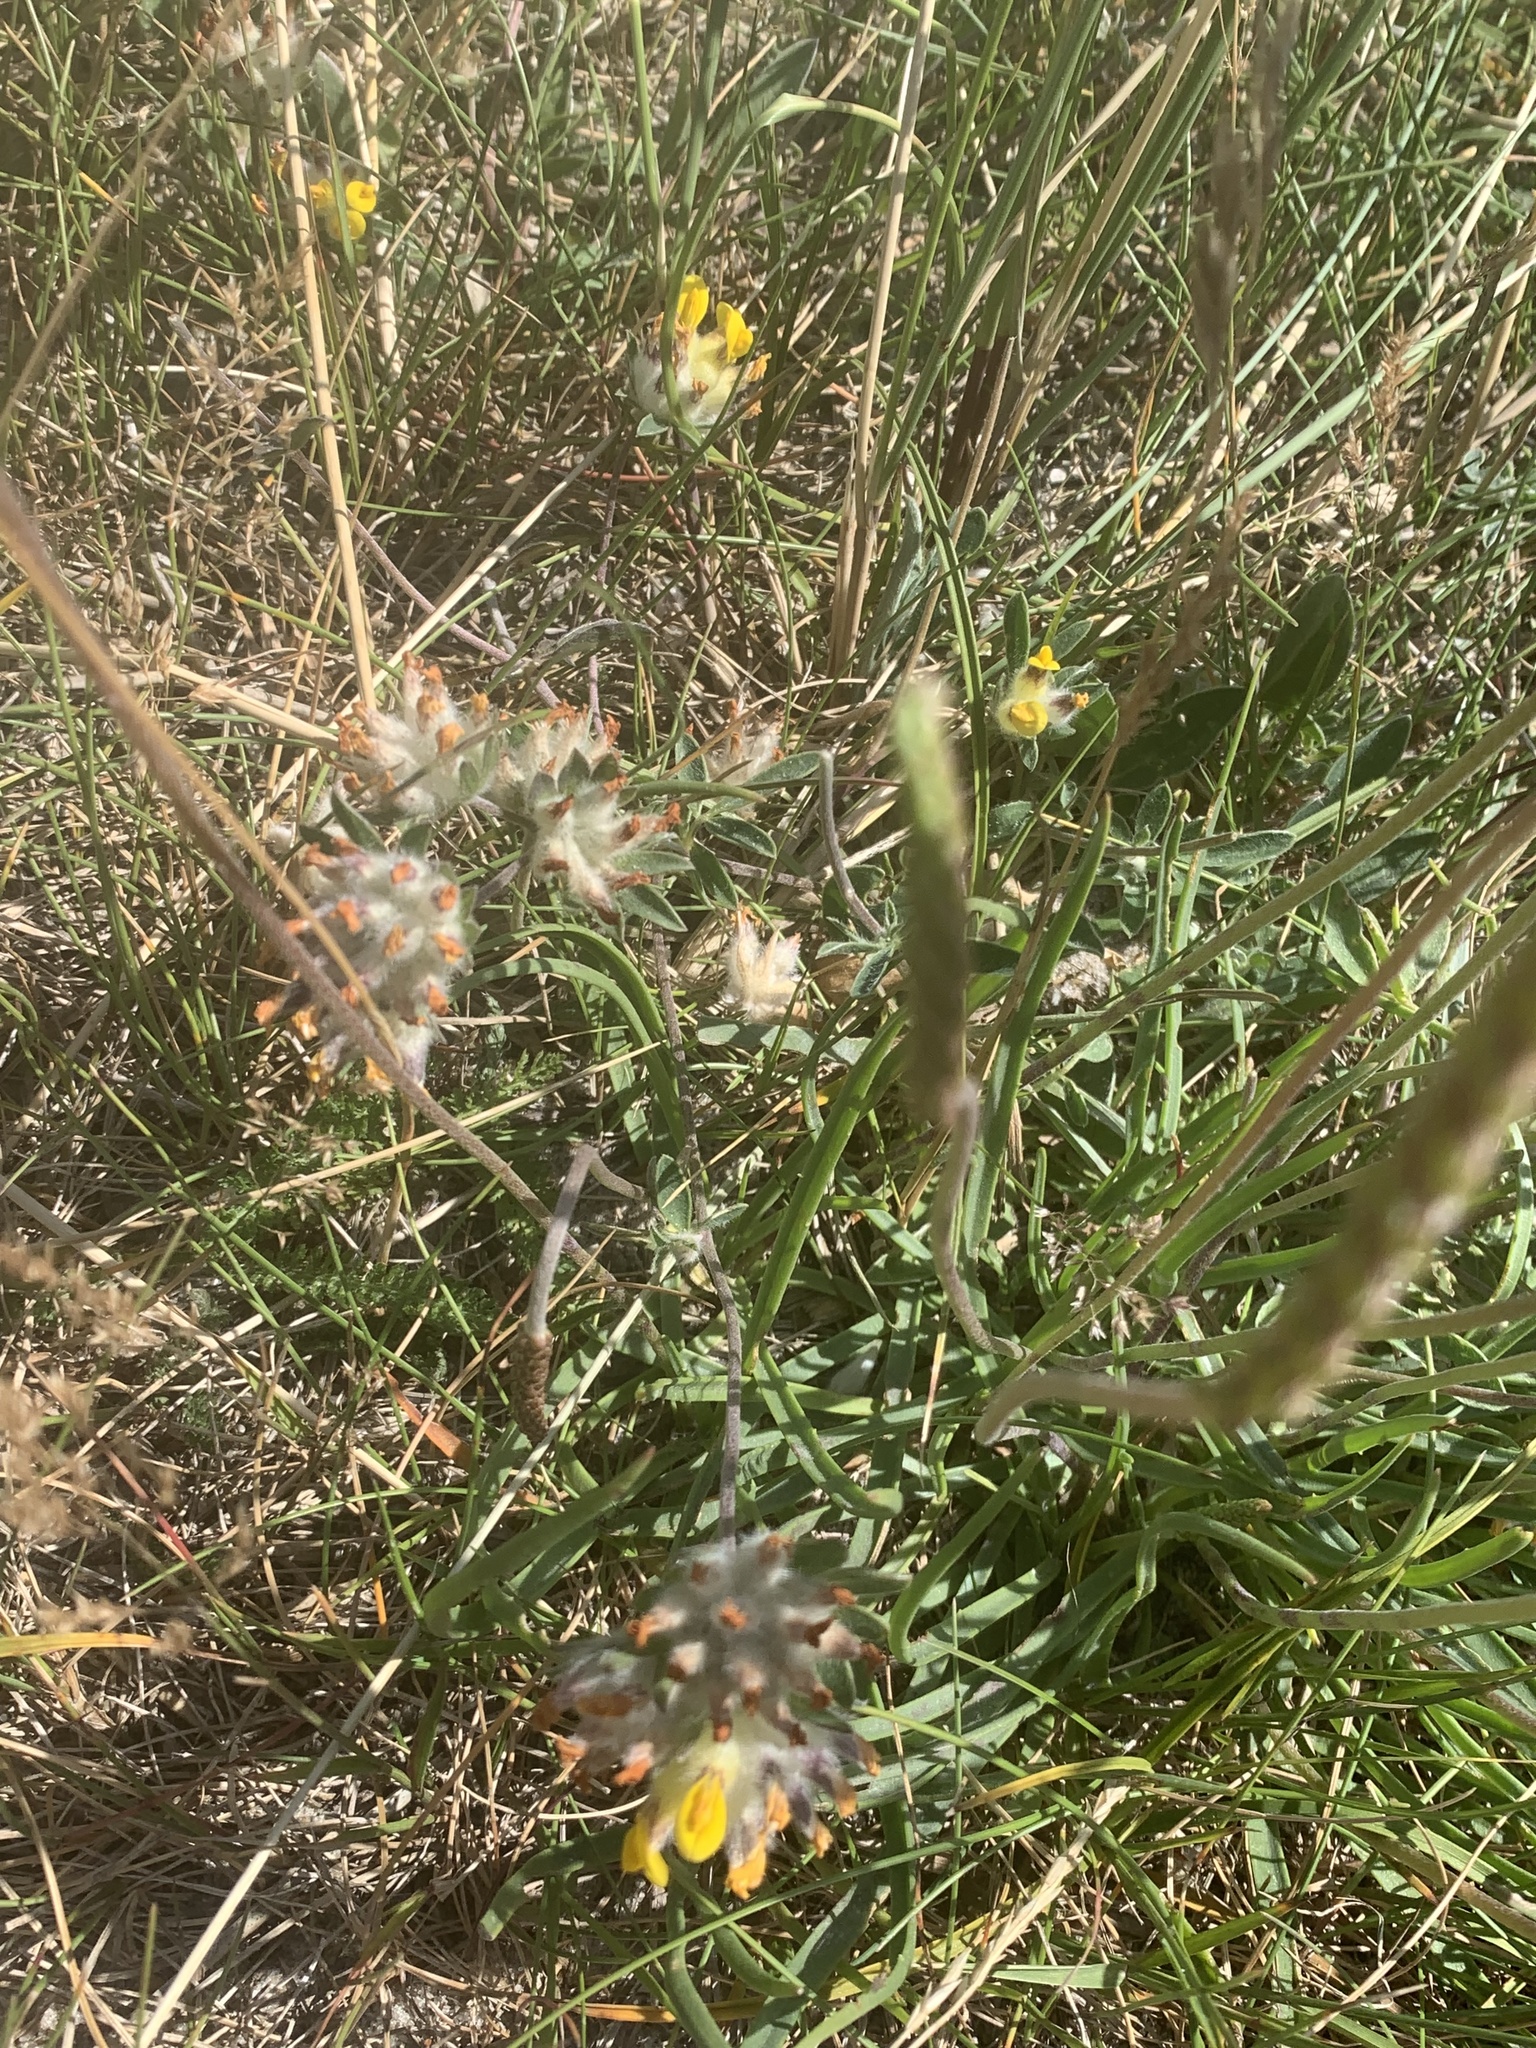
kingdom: Plantae
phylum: Tracheophyta
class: Magnoliopsida
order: Fabales
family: Fabaceae
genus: Anthyllis
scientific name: Anthyllis vulneraria
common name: Kidney vetch
